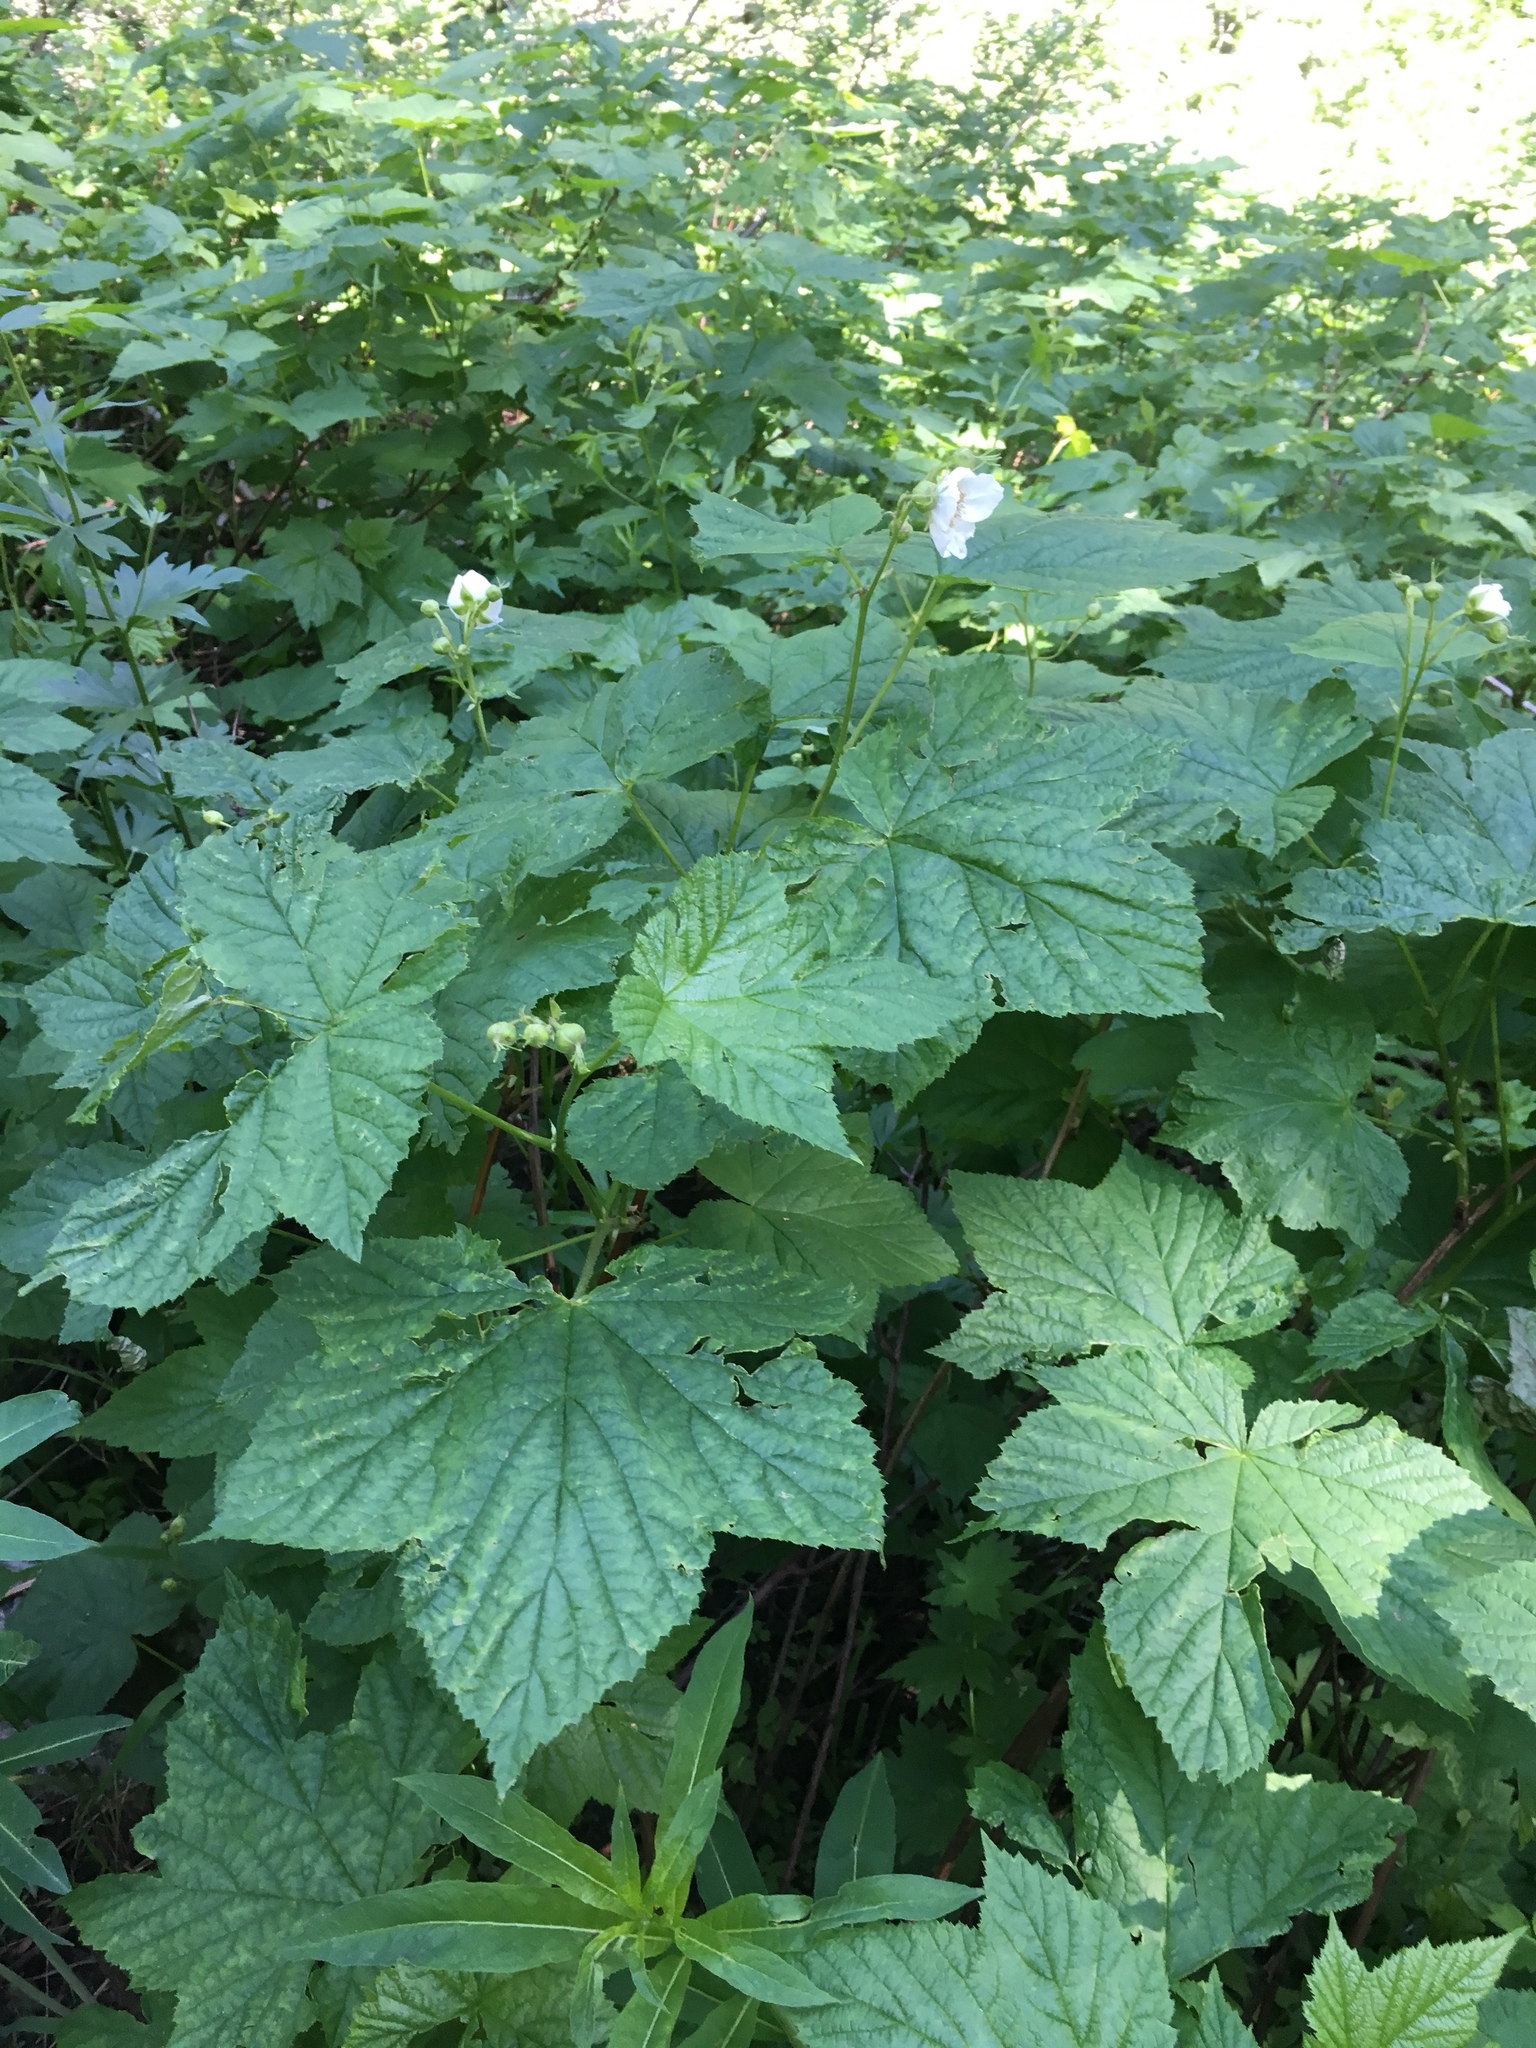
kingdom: Plantae
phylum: Tracheophyta
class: Magnoliopsida
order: Rosales
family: Rosaceae
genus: Rubus
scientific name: Rubus parviflorus
